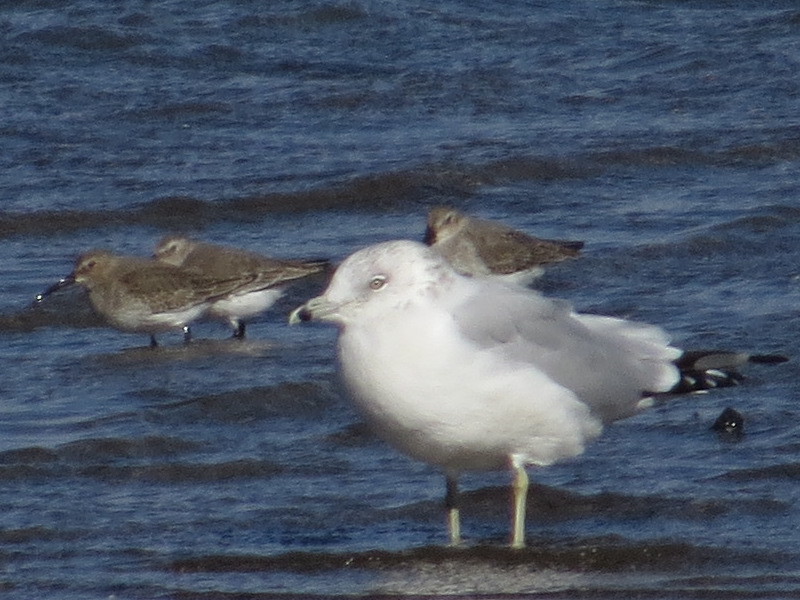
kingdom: Animalia
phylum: Chordata
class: Aves
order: Charadriiformes
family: Laridae
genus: Larus
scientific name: Larus delawarensis
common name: Ring-billed gull
